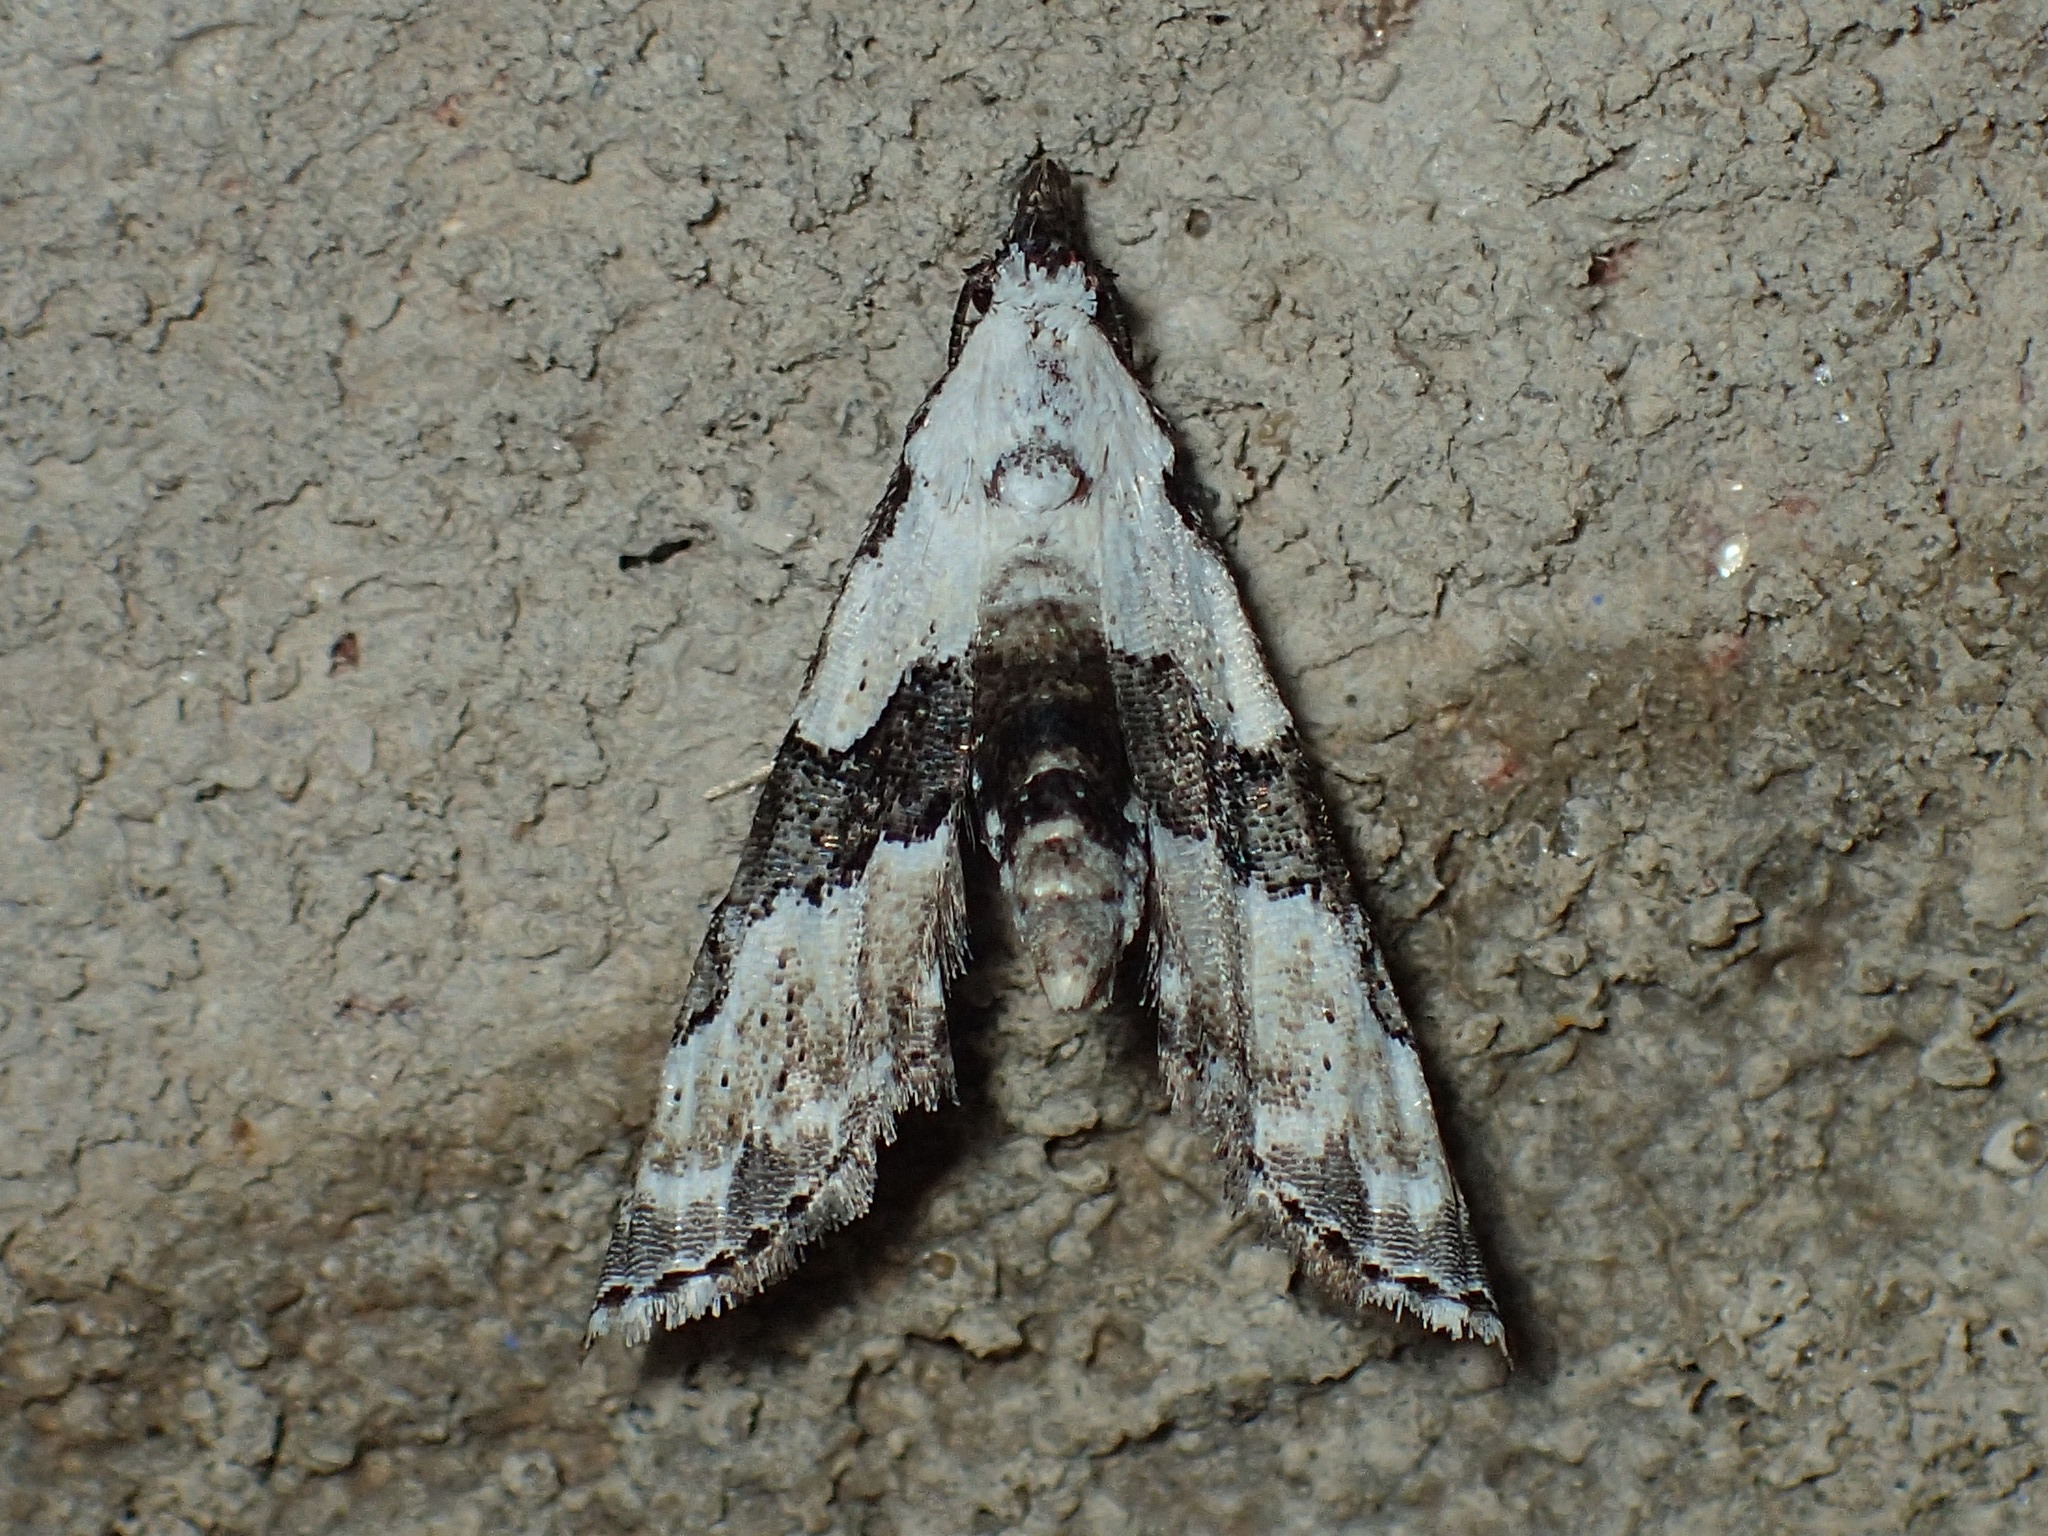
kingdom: Animalia
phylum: Arthropoda
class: Insecta
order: Lepidoptera
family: Noctuidae
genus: Nigetia
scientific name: Nigetia formosalis
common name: Thin-winged owlet
